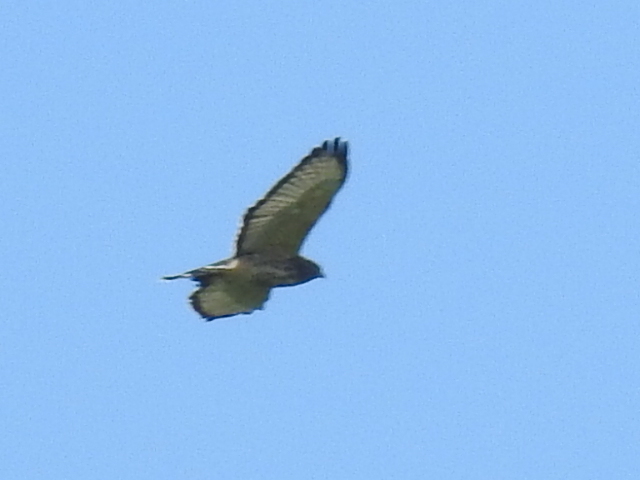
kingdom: Animalia
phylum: Chordata
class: Aves
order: Accipitriformes
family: Accipitridae
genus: Buteo
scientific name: Buteo platypterus
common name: Broad-winged hawk
